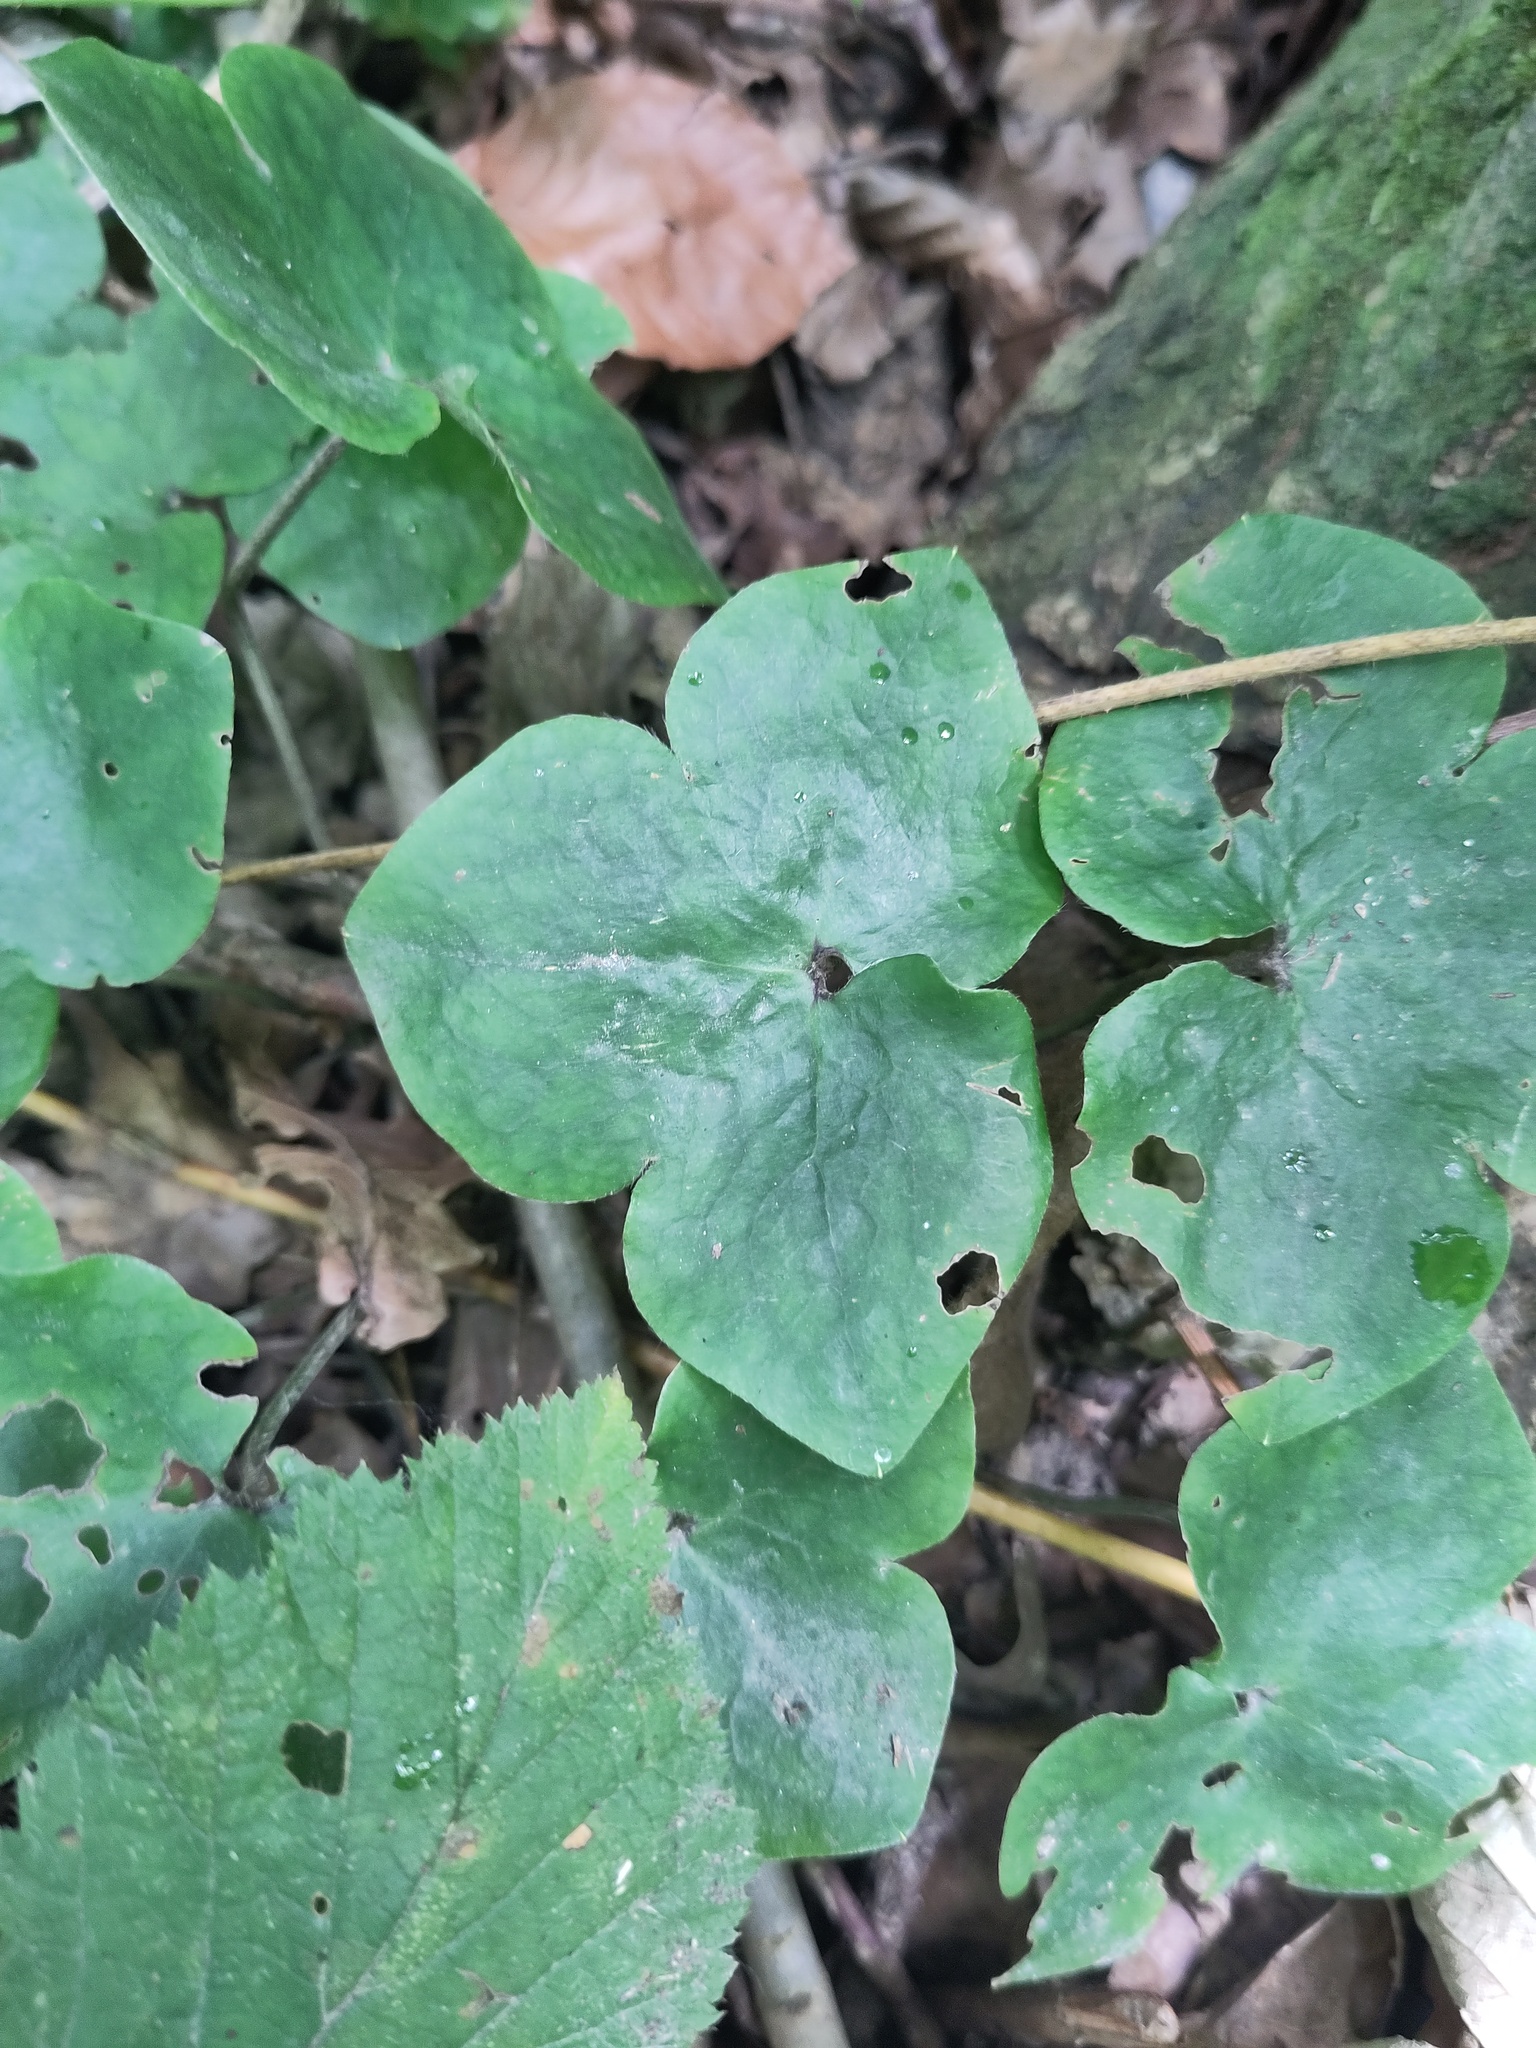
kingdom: Plantae
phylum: Tracheophyta
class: Magnoliopsida
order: Ranunculales
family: Ranunculaceae
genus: Hepatica
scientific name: Hepatica nobilis
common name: Liverleaf
